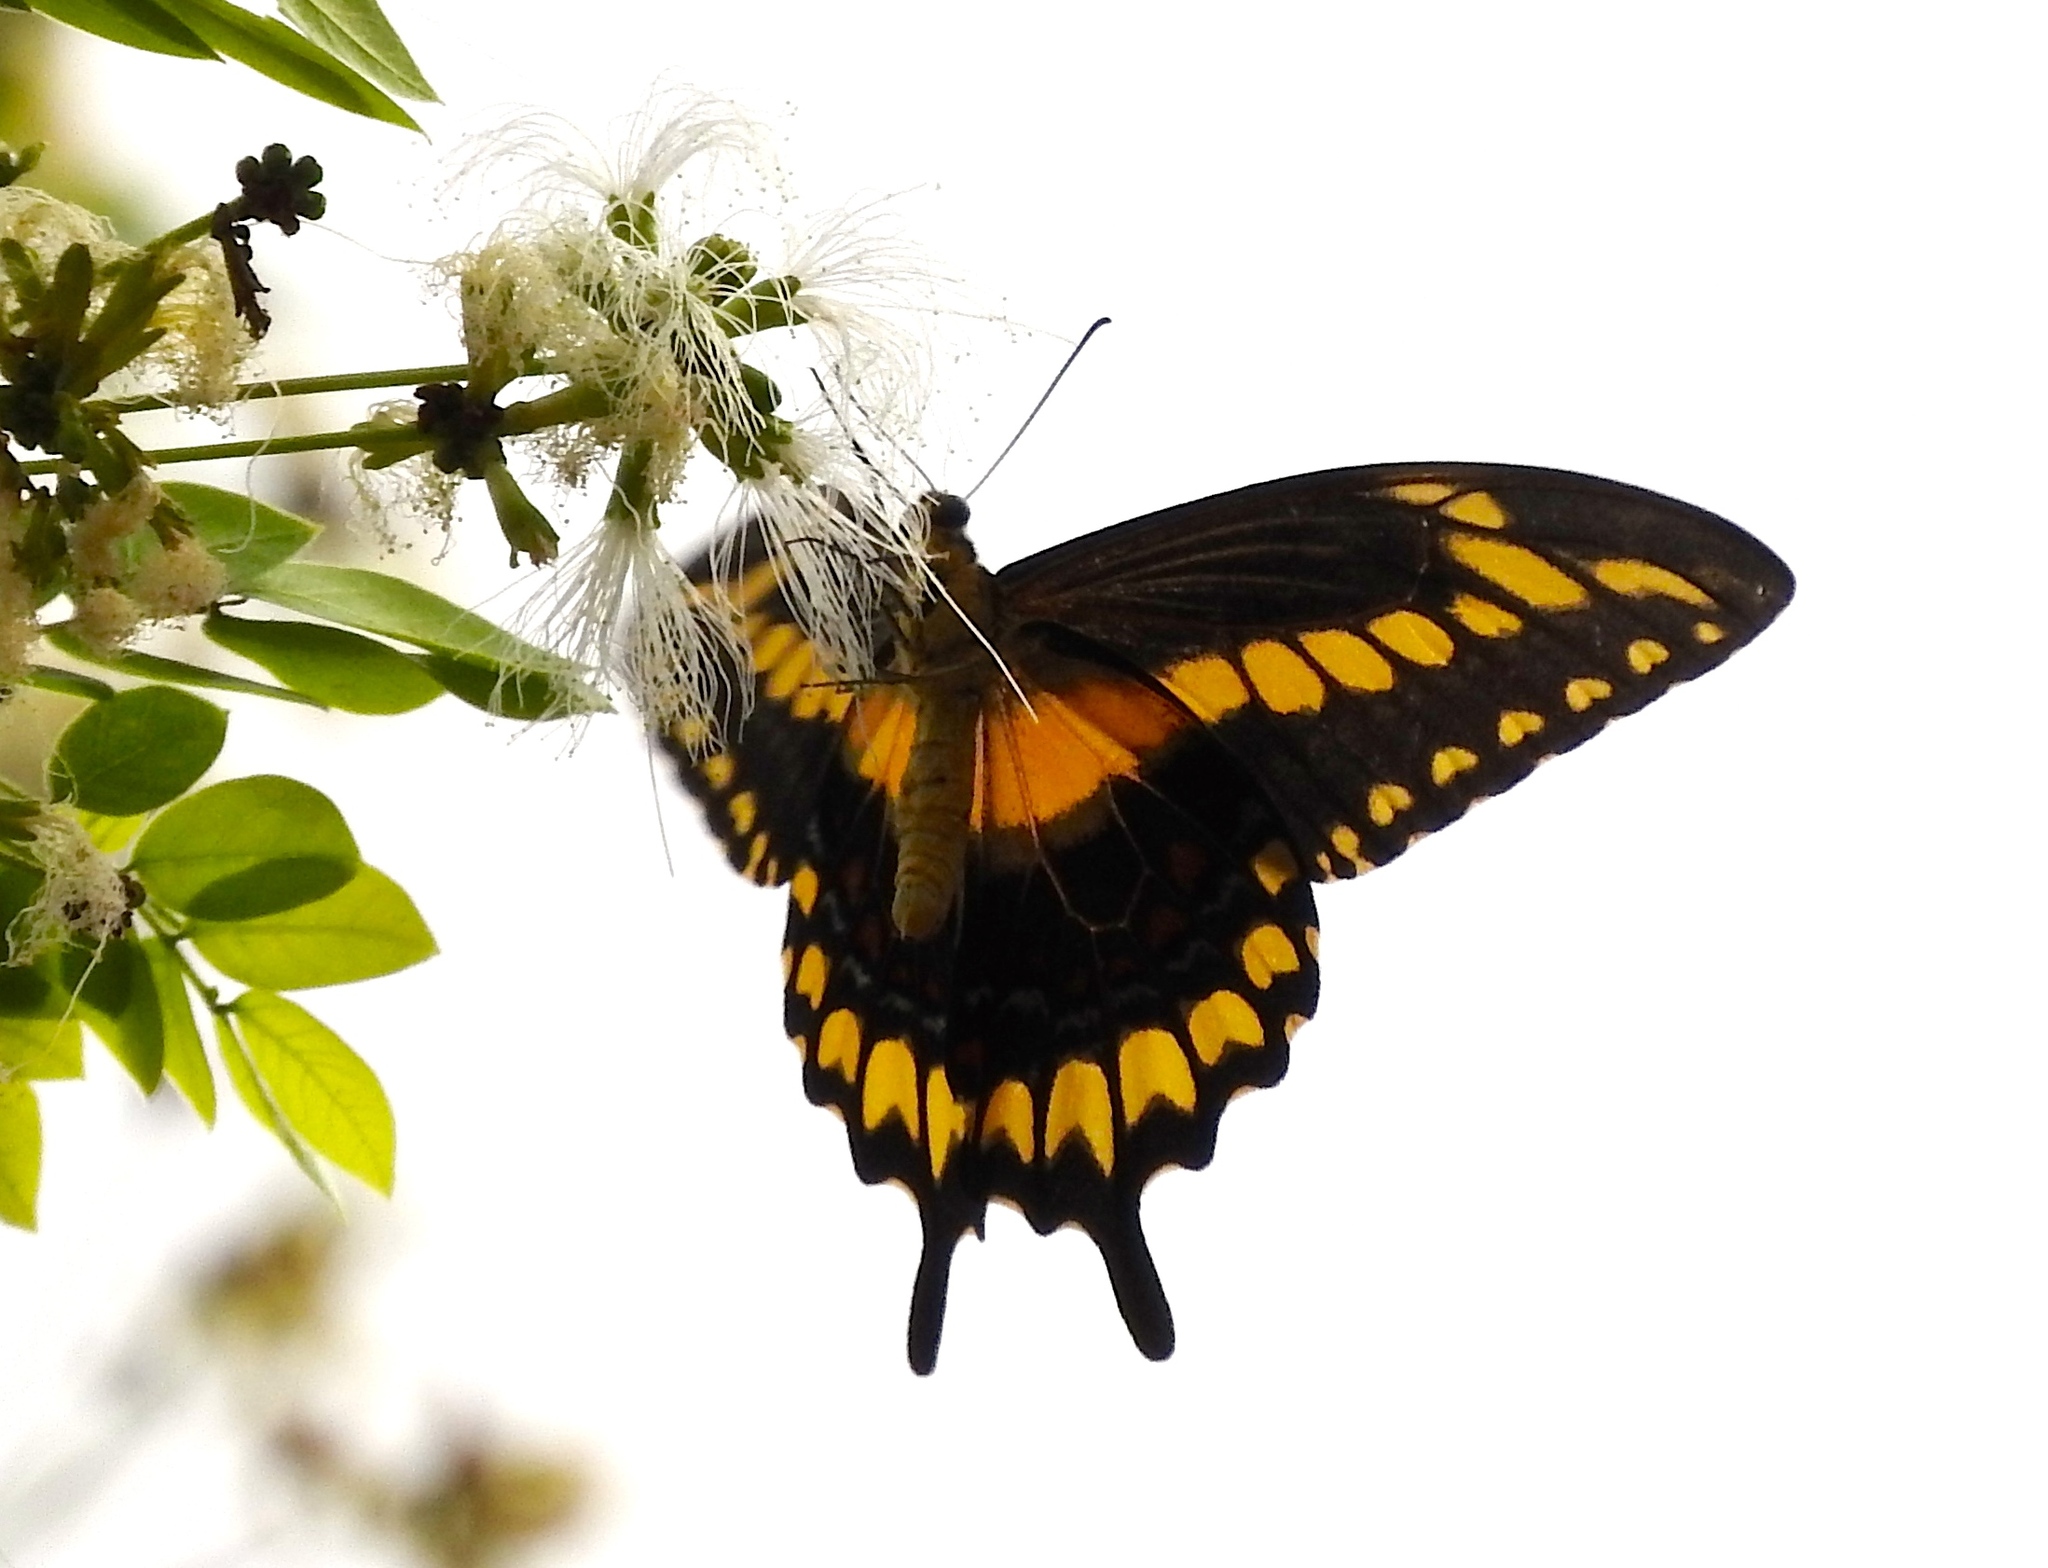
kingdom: Animalia
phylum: Arthropoda
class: Insecta
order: Lepidoptera
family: Papilionidae
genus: Heraclides
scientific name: Heraclides pallas
